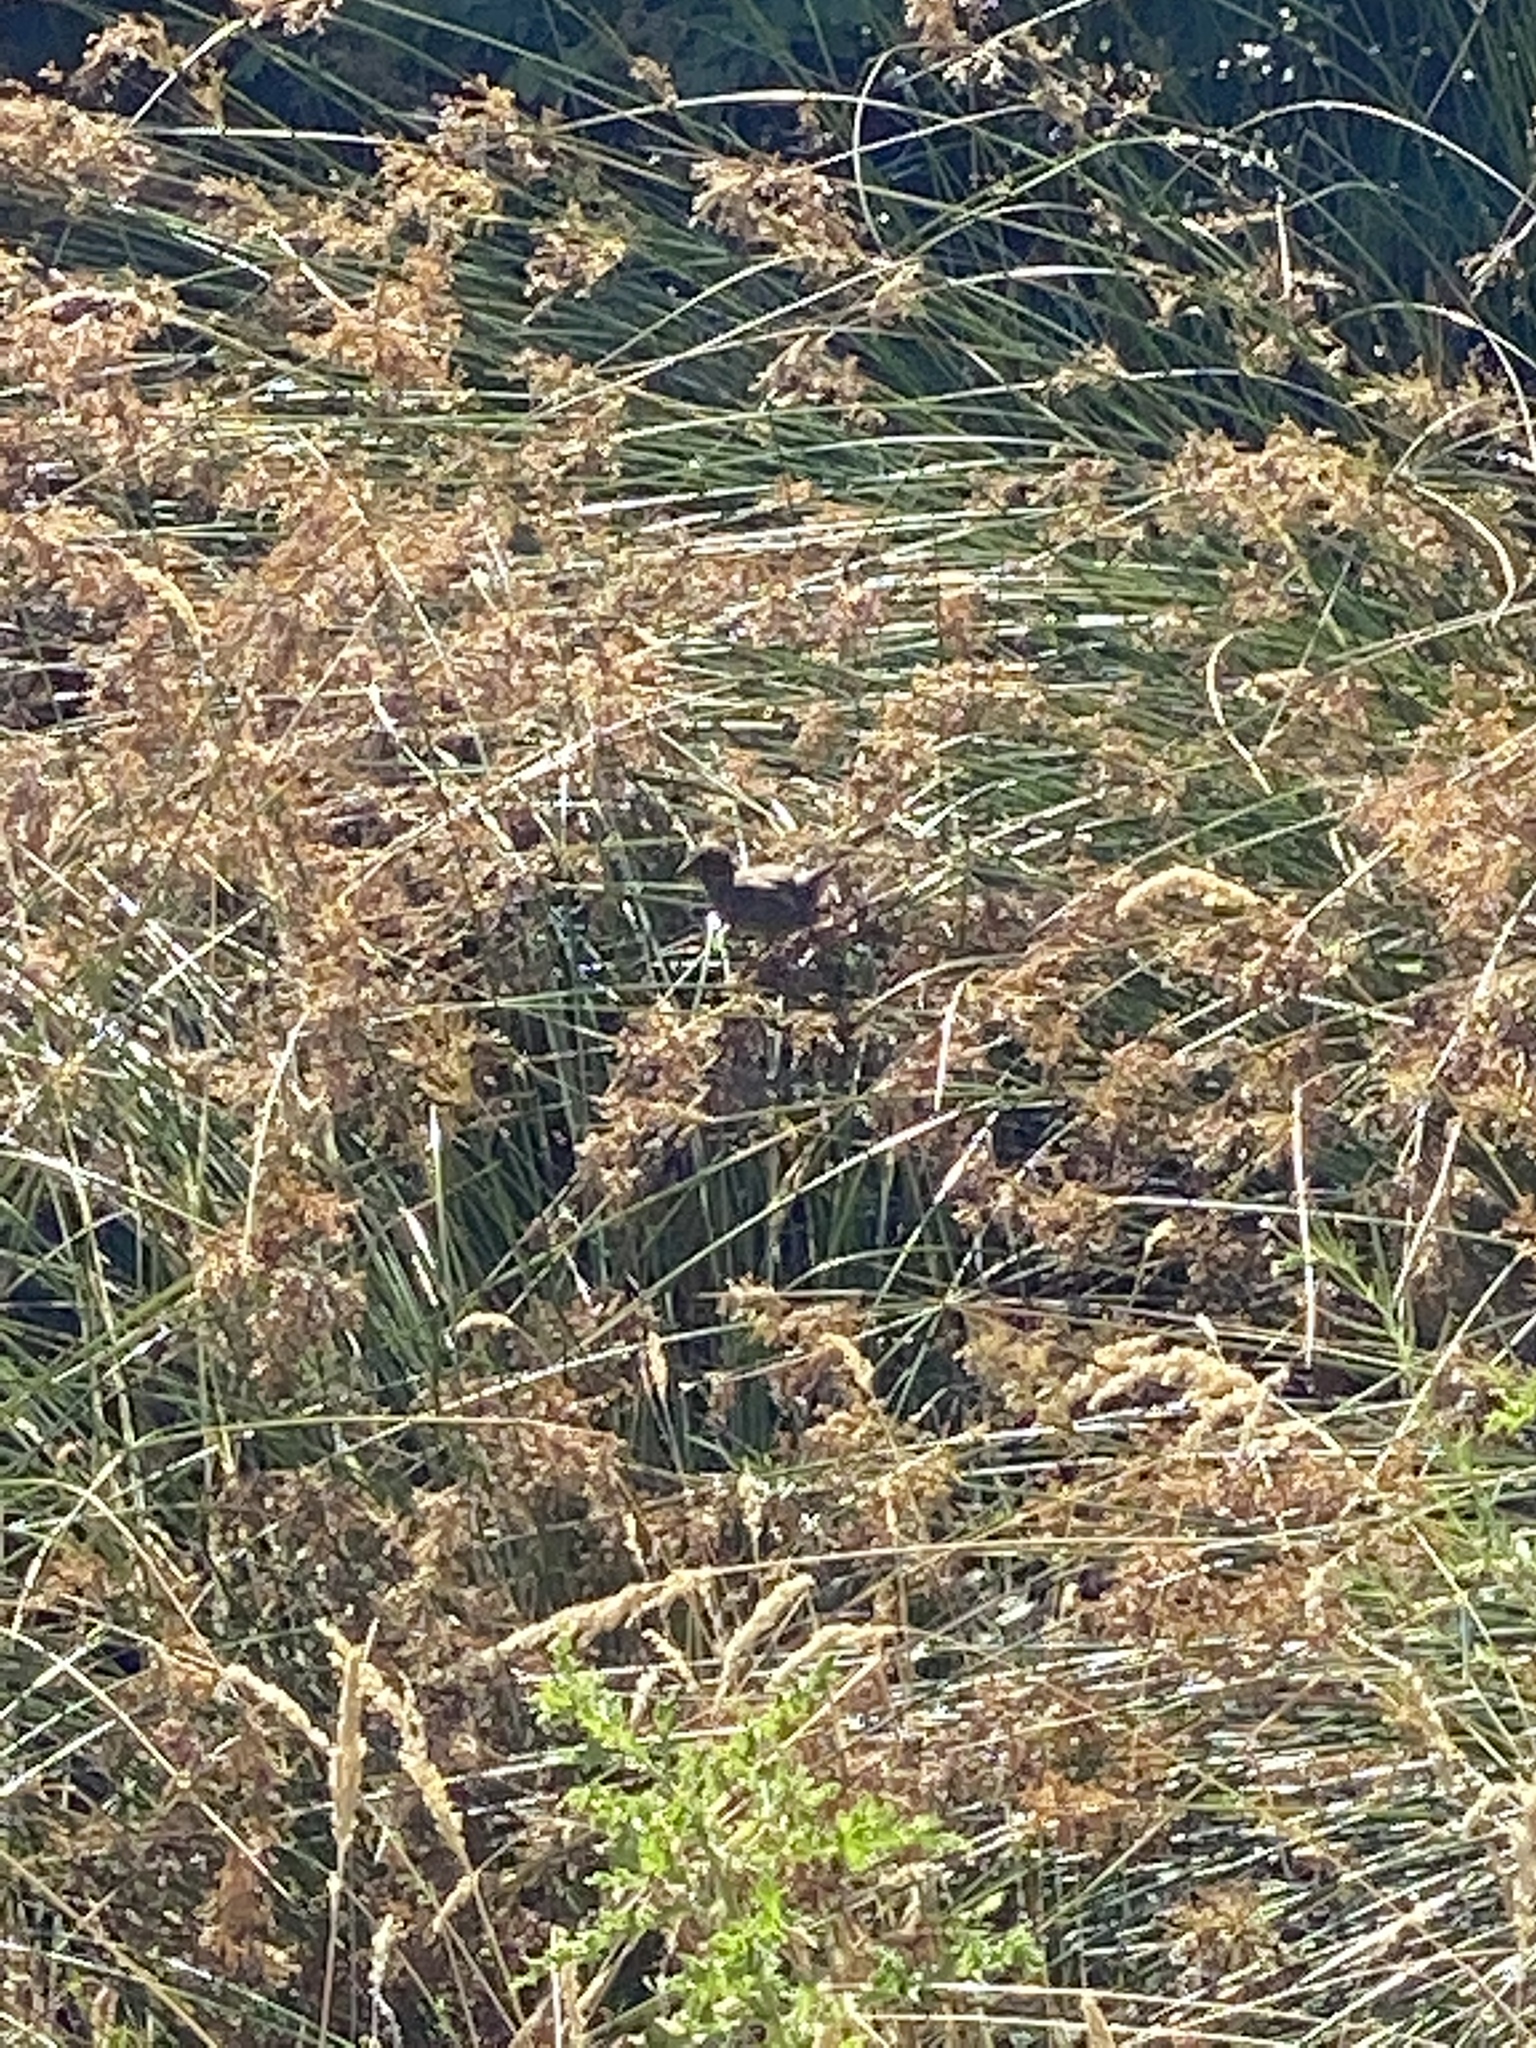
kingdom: Animalia
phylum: Chordata
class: Aves
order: Passeriformes
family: Passerellidae
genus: Melospiza
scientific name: Melospiza melodia
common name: Song sparrow
